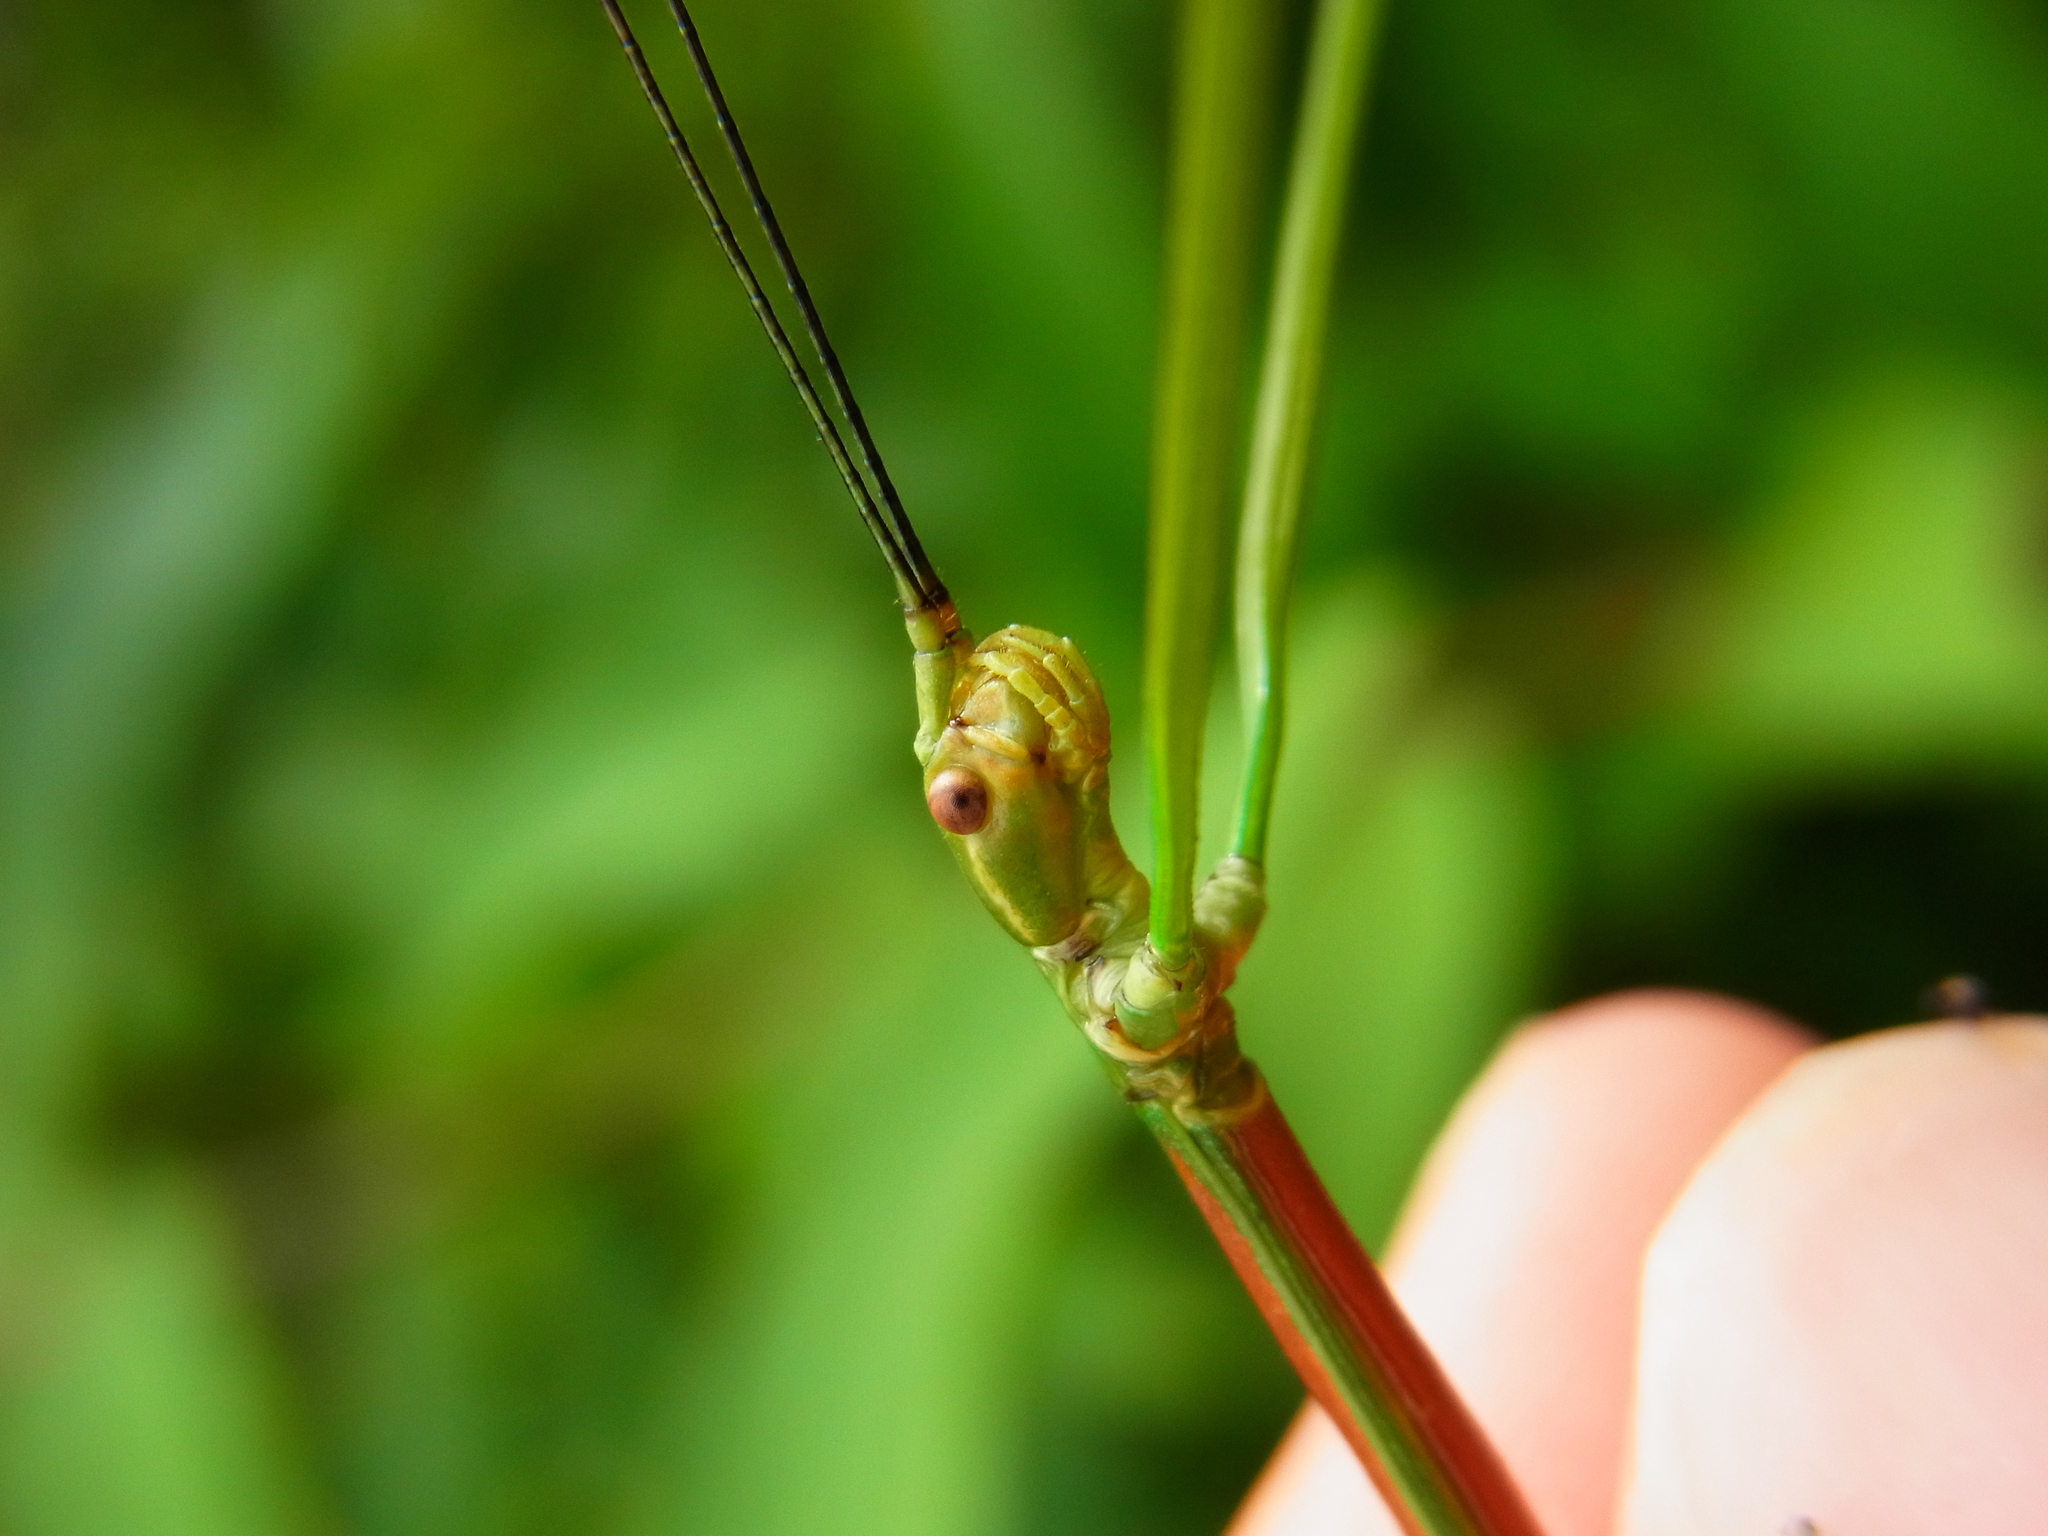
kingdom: Animalia
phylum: Arthropoda
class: Insecta
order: Phasmida
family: Lonchodidae
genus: Phraortes
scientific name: Phraortes elongatus
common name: Japanese stick-insect
